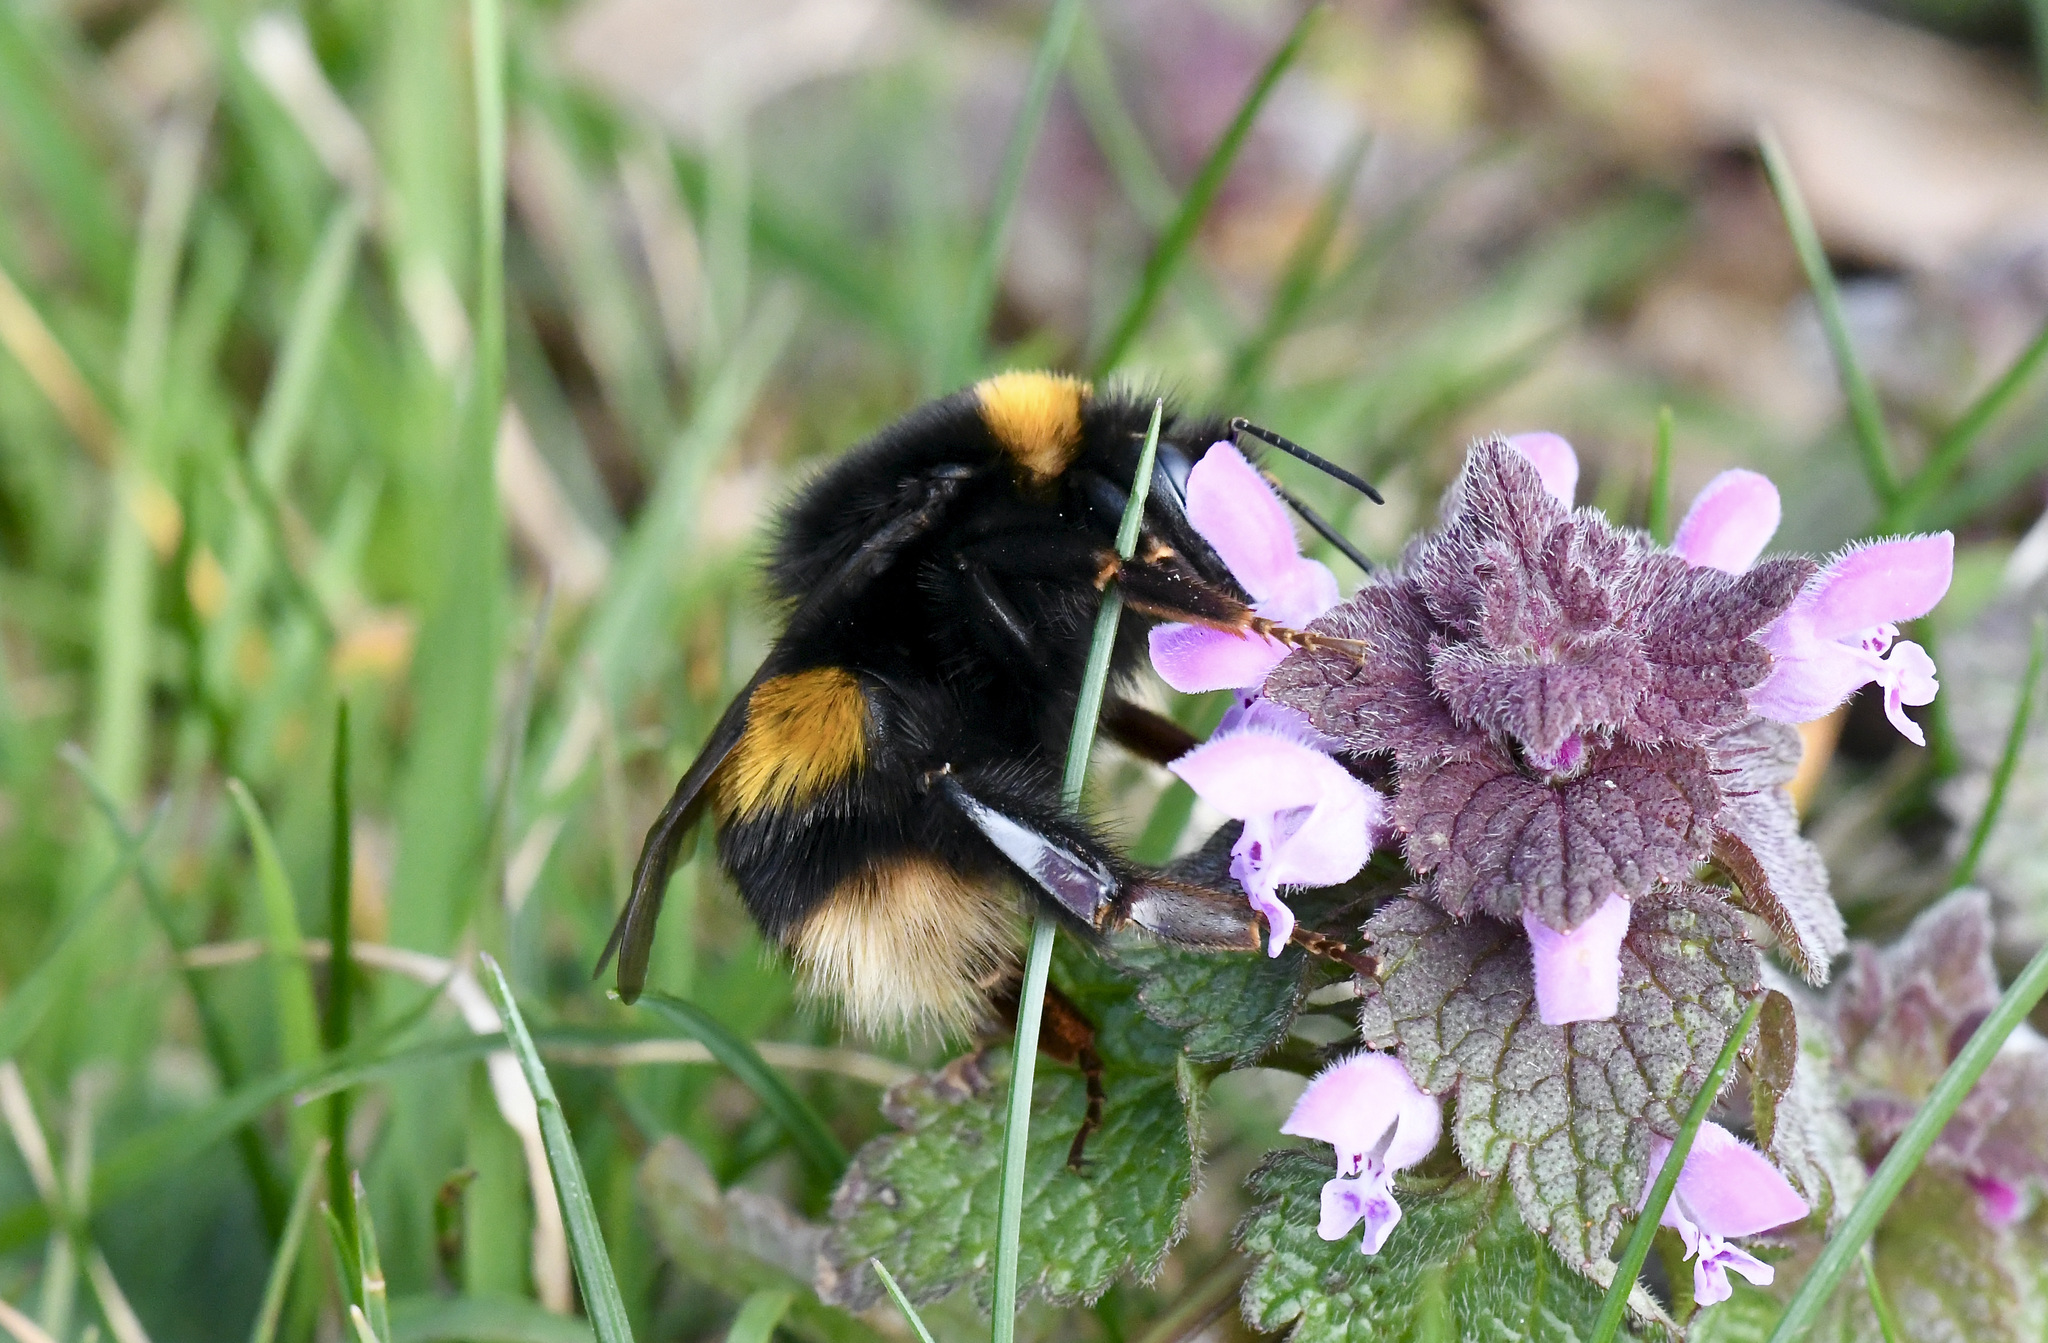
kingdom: Animalia
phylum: Arthropoda
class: Insecta
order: Hymenoptera
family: Apidae
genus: Bombus
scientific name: Bombus terrestris
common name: Buff-tailed bumblebee
